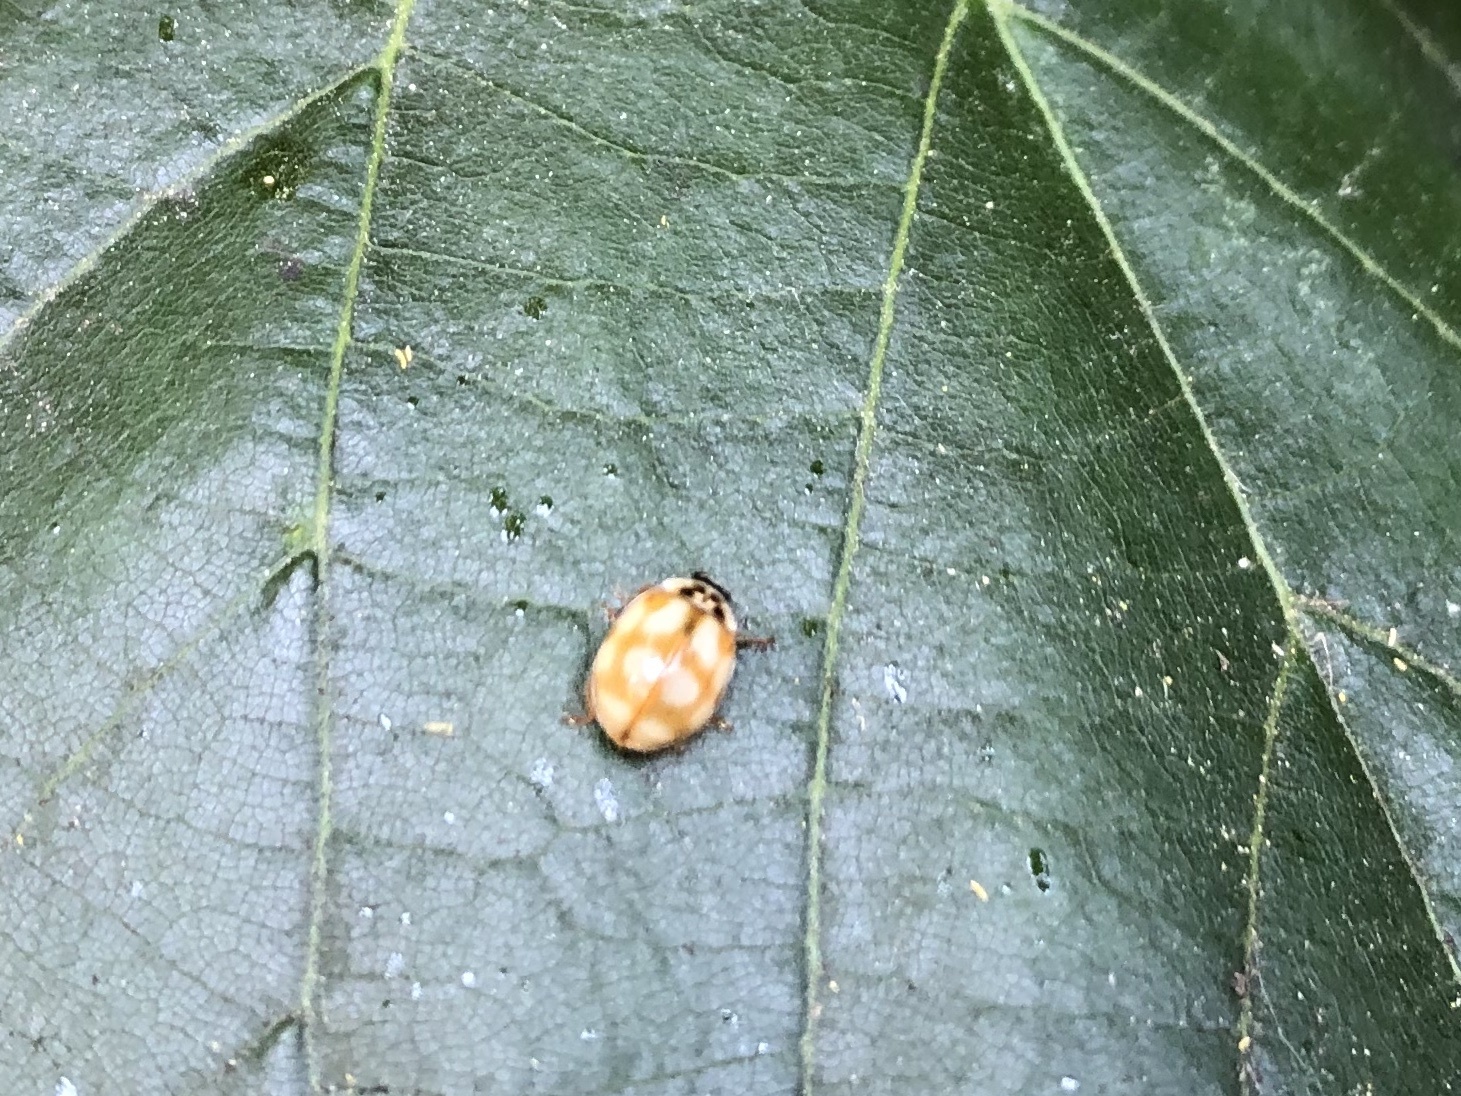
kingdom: Animalia
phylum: Arthropoda
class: Insecta
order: Coleoptera
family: Coccinellidae
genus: Adalia
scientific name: Adalia decempunctata
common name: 10-spot ladybird
